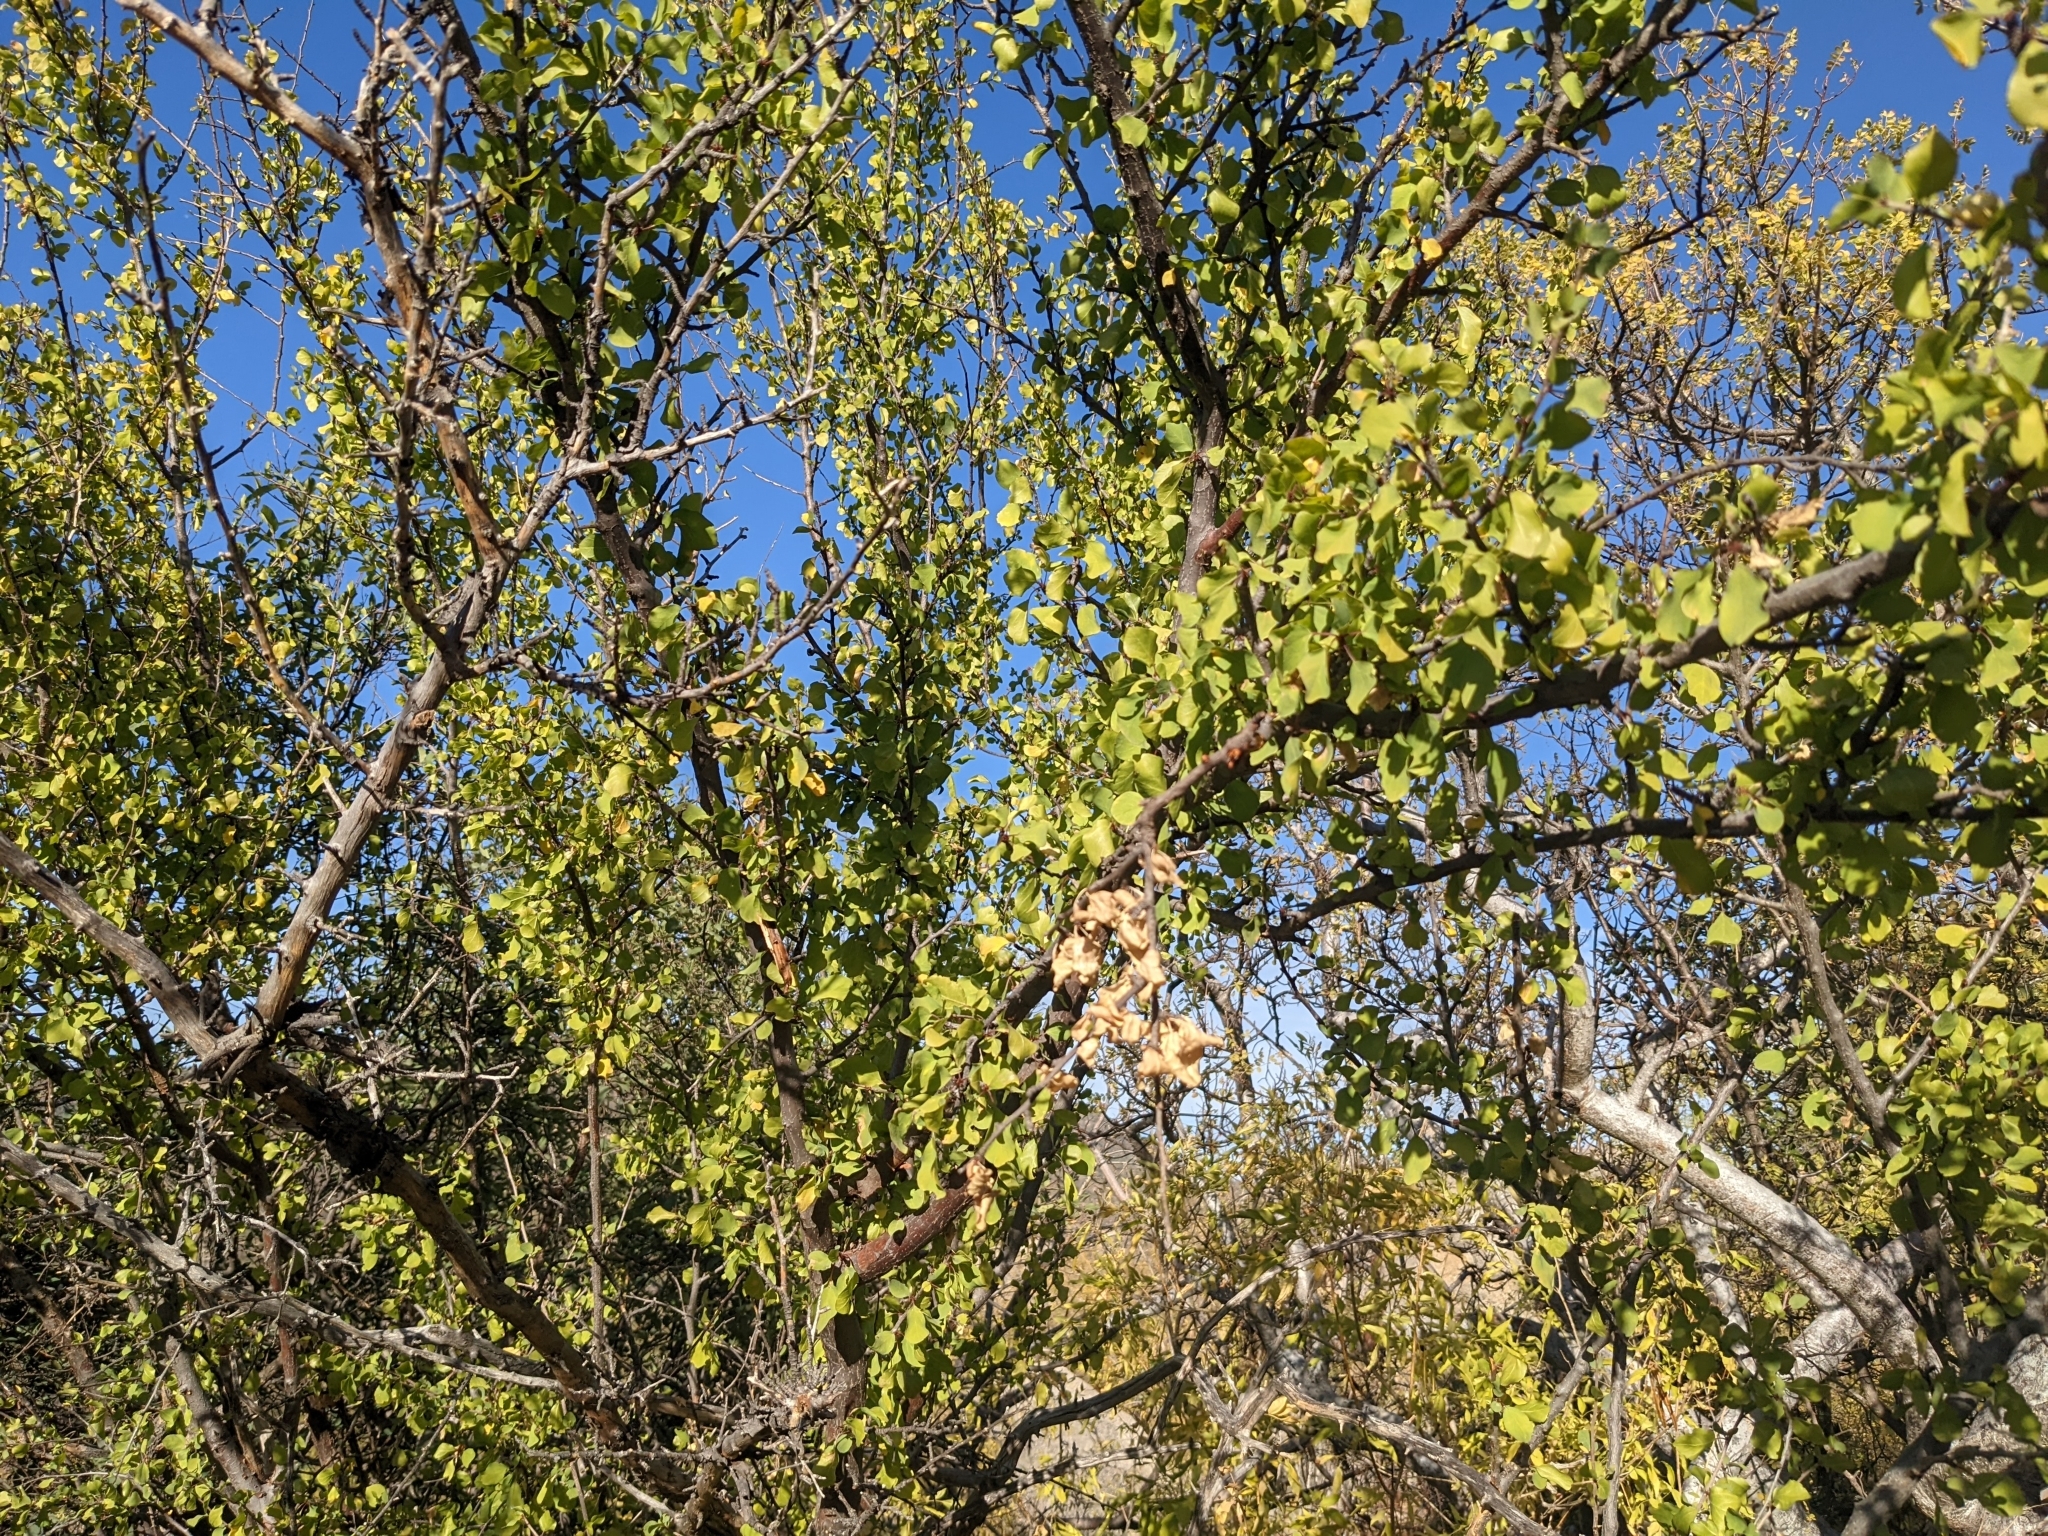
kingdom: Plantae
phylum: Tracheophyta
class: Magnoliopsida
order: Rosales
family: Rhamnaceae
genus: Colubrina
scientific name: Colubrina viridis
